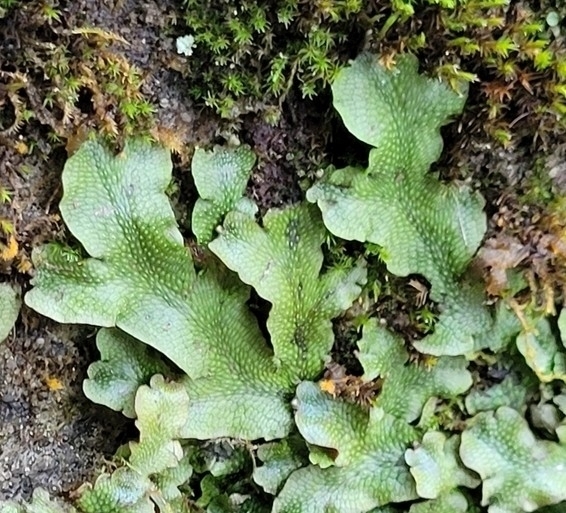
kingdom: Plantae
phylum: Marchantiophyta
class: Marchantiopsida
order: Marchantiales
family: Conocephalaceae
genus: Conocephalum
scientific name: Conocephalum conicum
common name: Great scented liverwort
